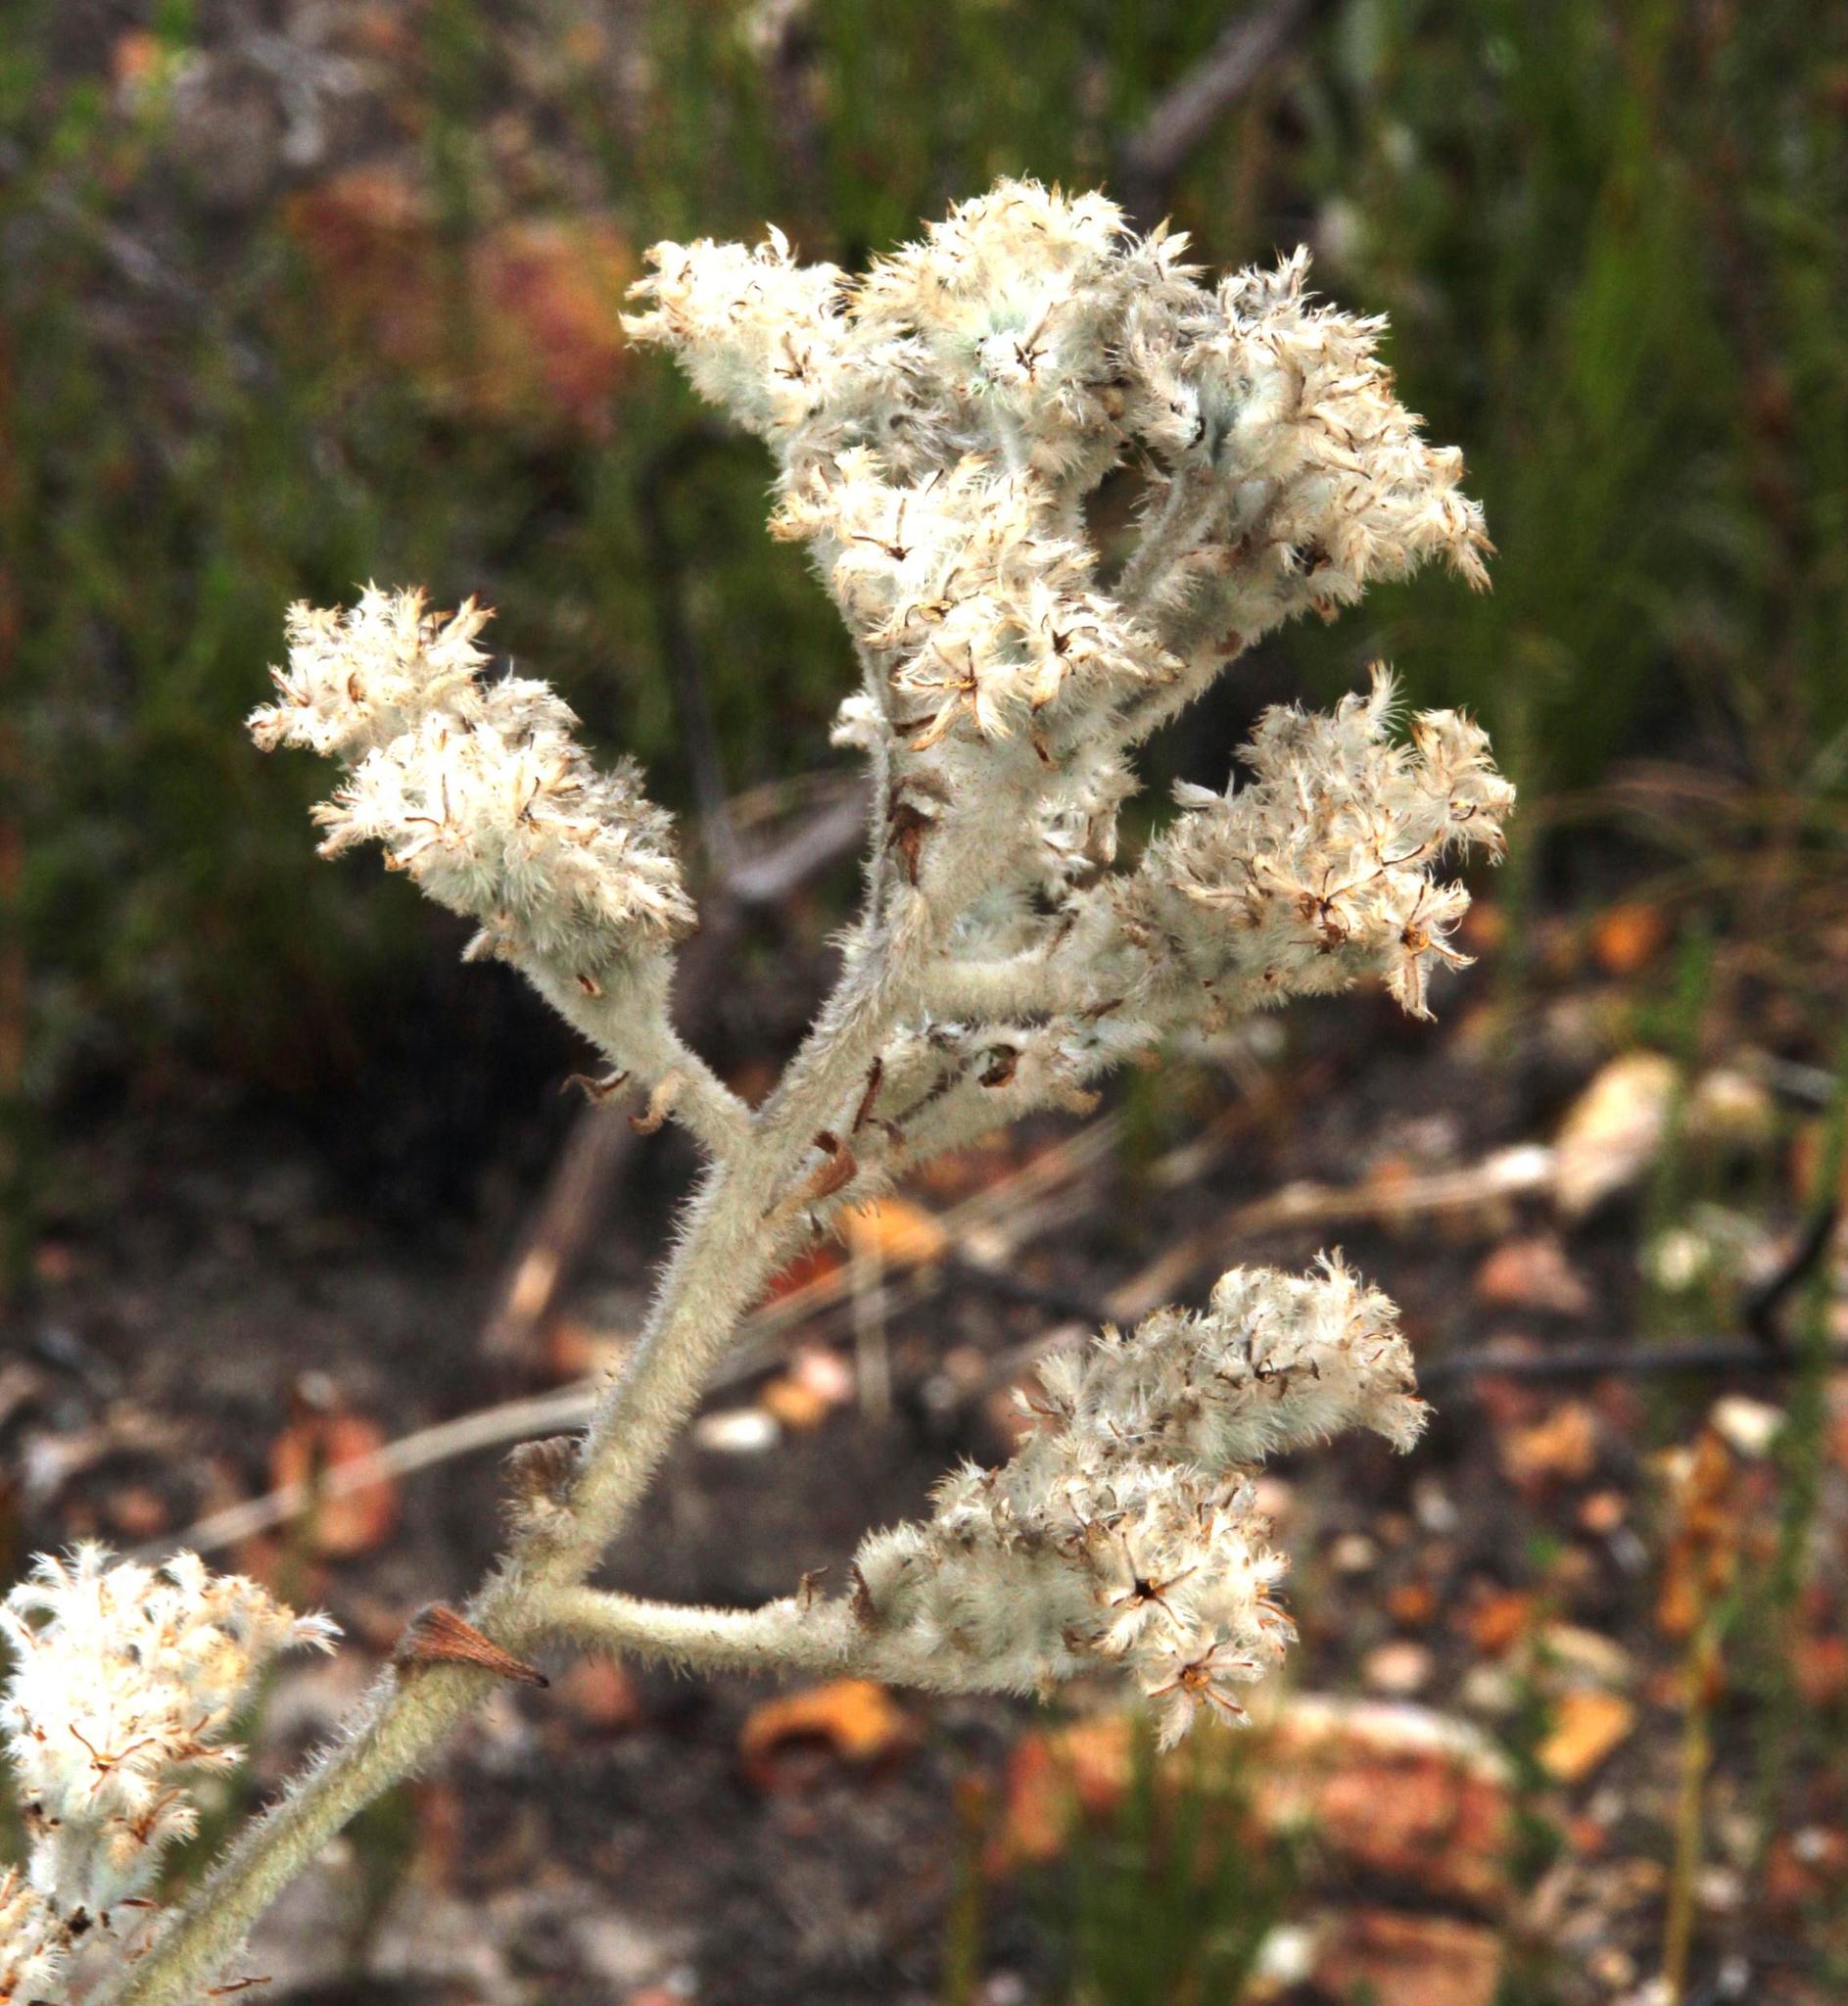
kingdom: Plantae
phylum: Tracheophyta
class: Liliopsida
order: Asparagales
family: Lanariaceae
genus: Lanaria
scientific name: Lanaria lanata
